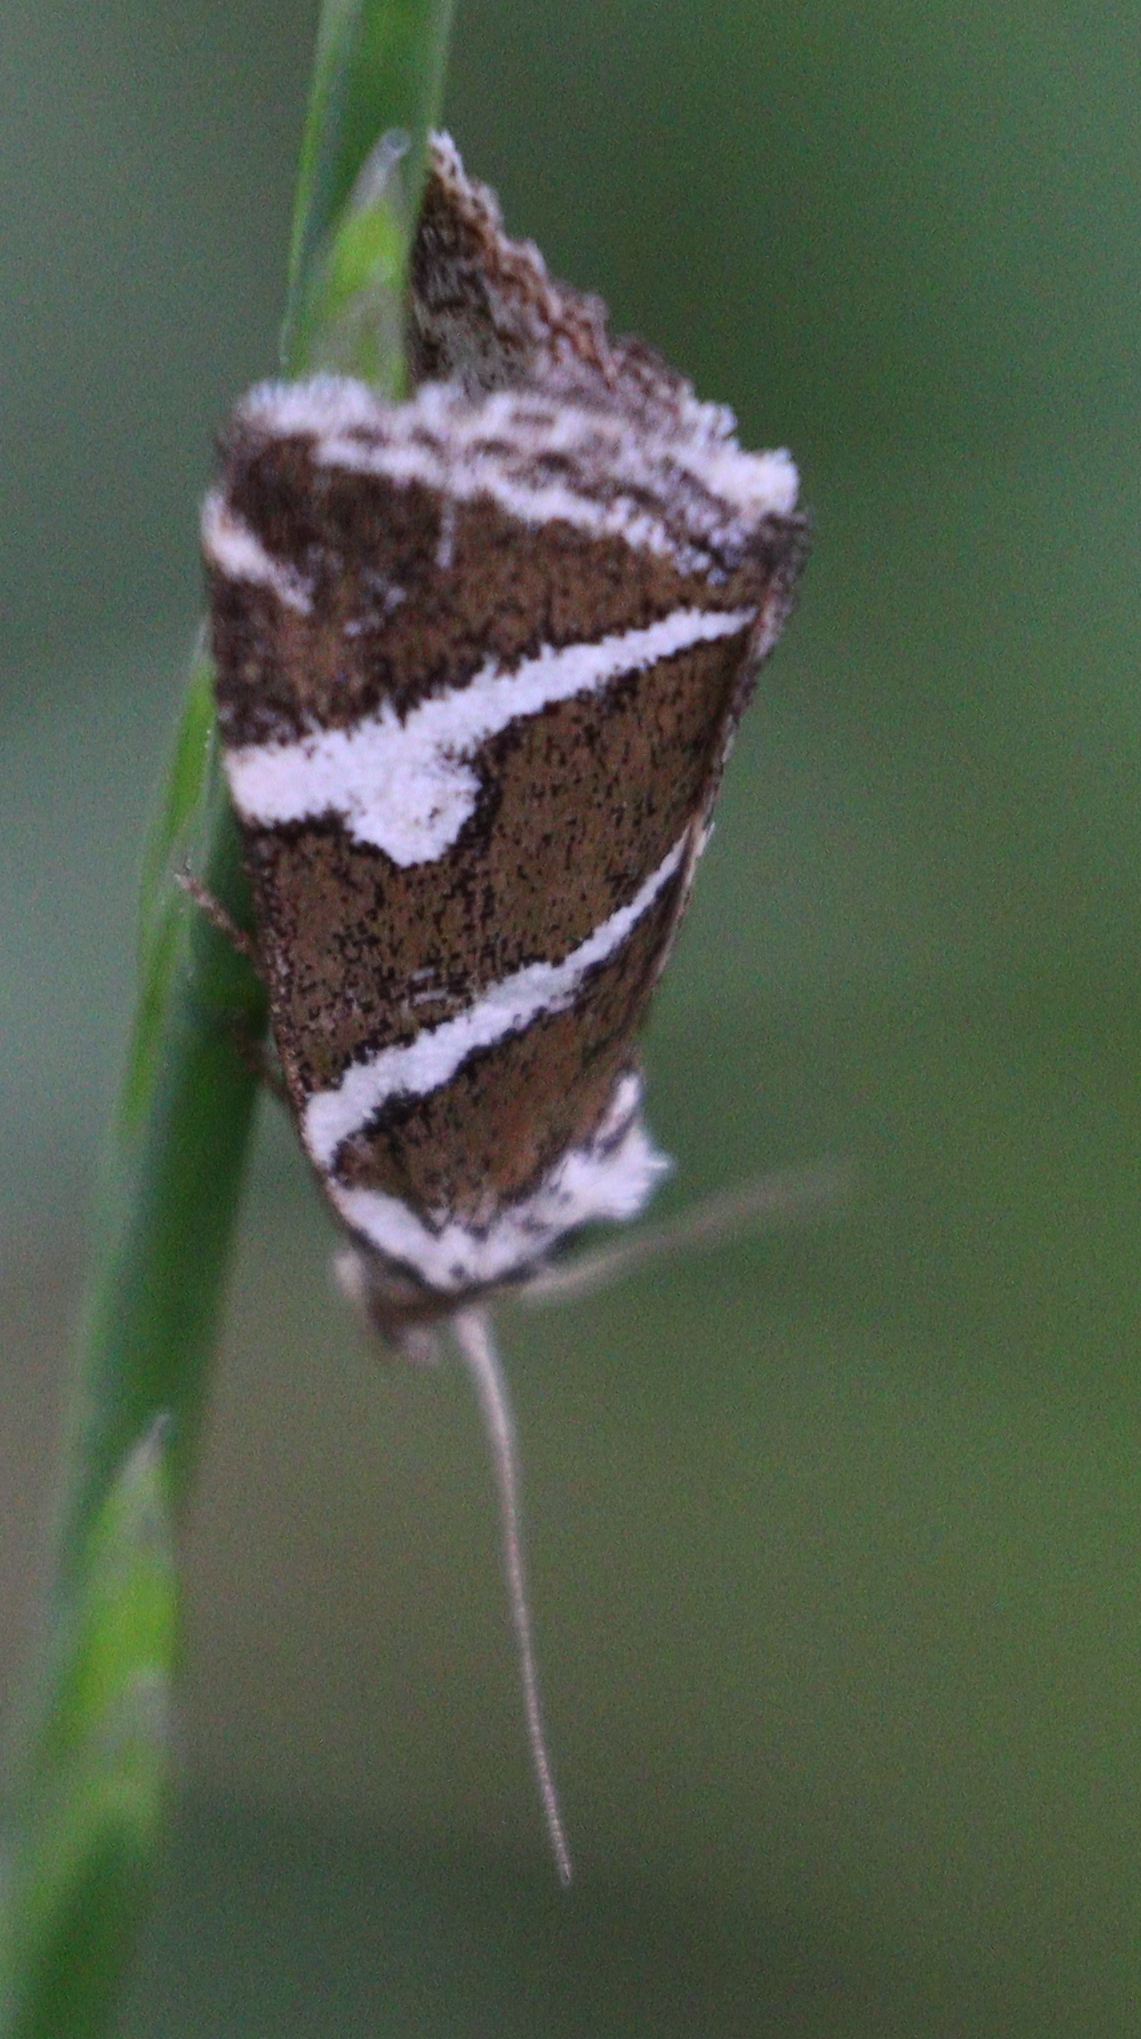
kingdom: Animalia
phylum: Arthropoda
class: Insecta
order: Lepidoptera
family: Noctuidae
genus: Deltote
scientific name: Deltote bankiana
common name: Silver barred
